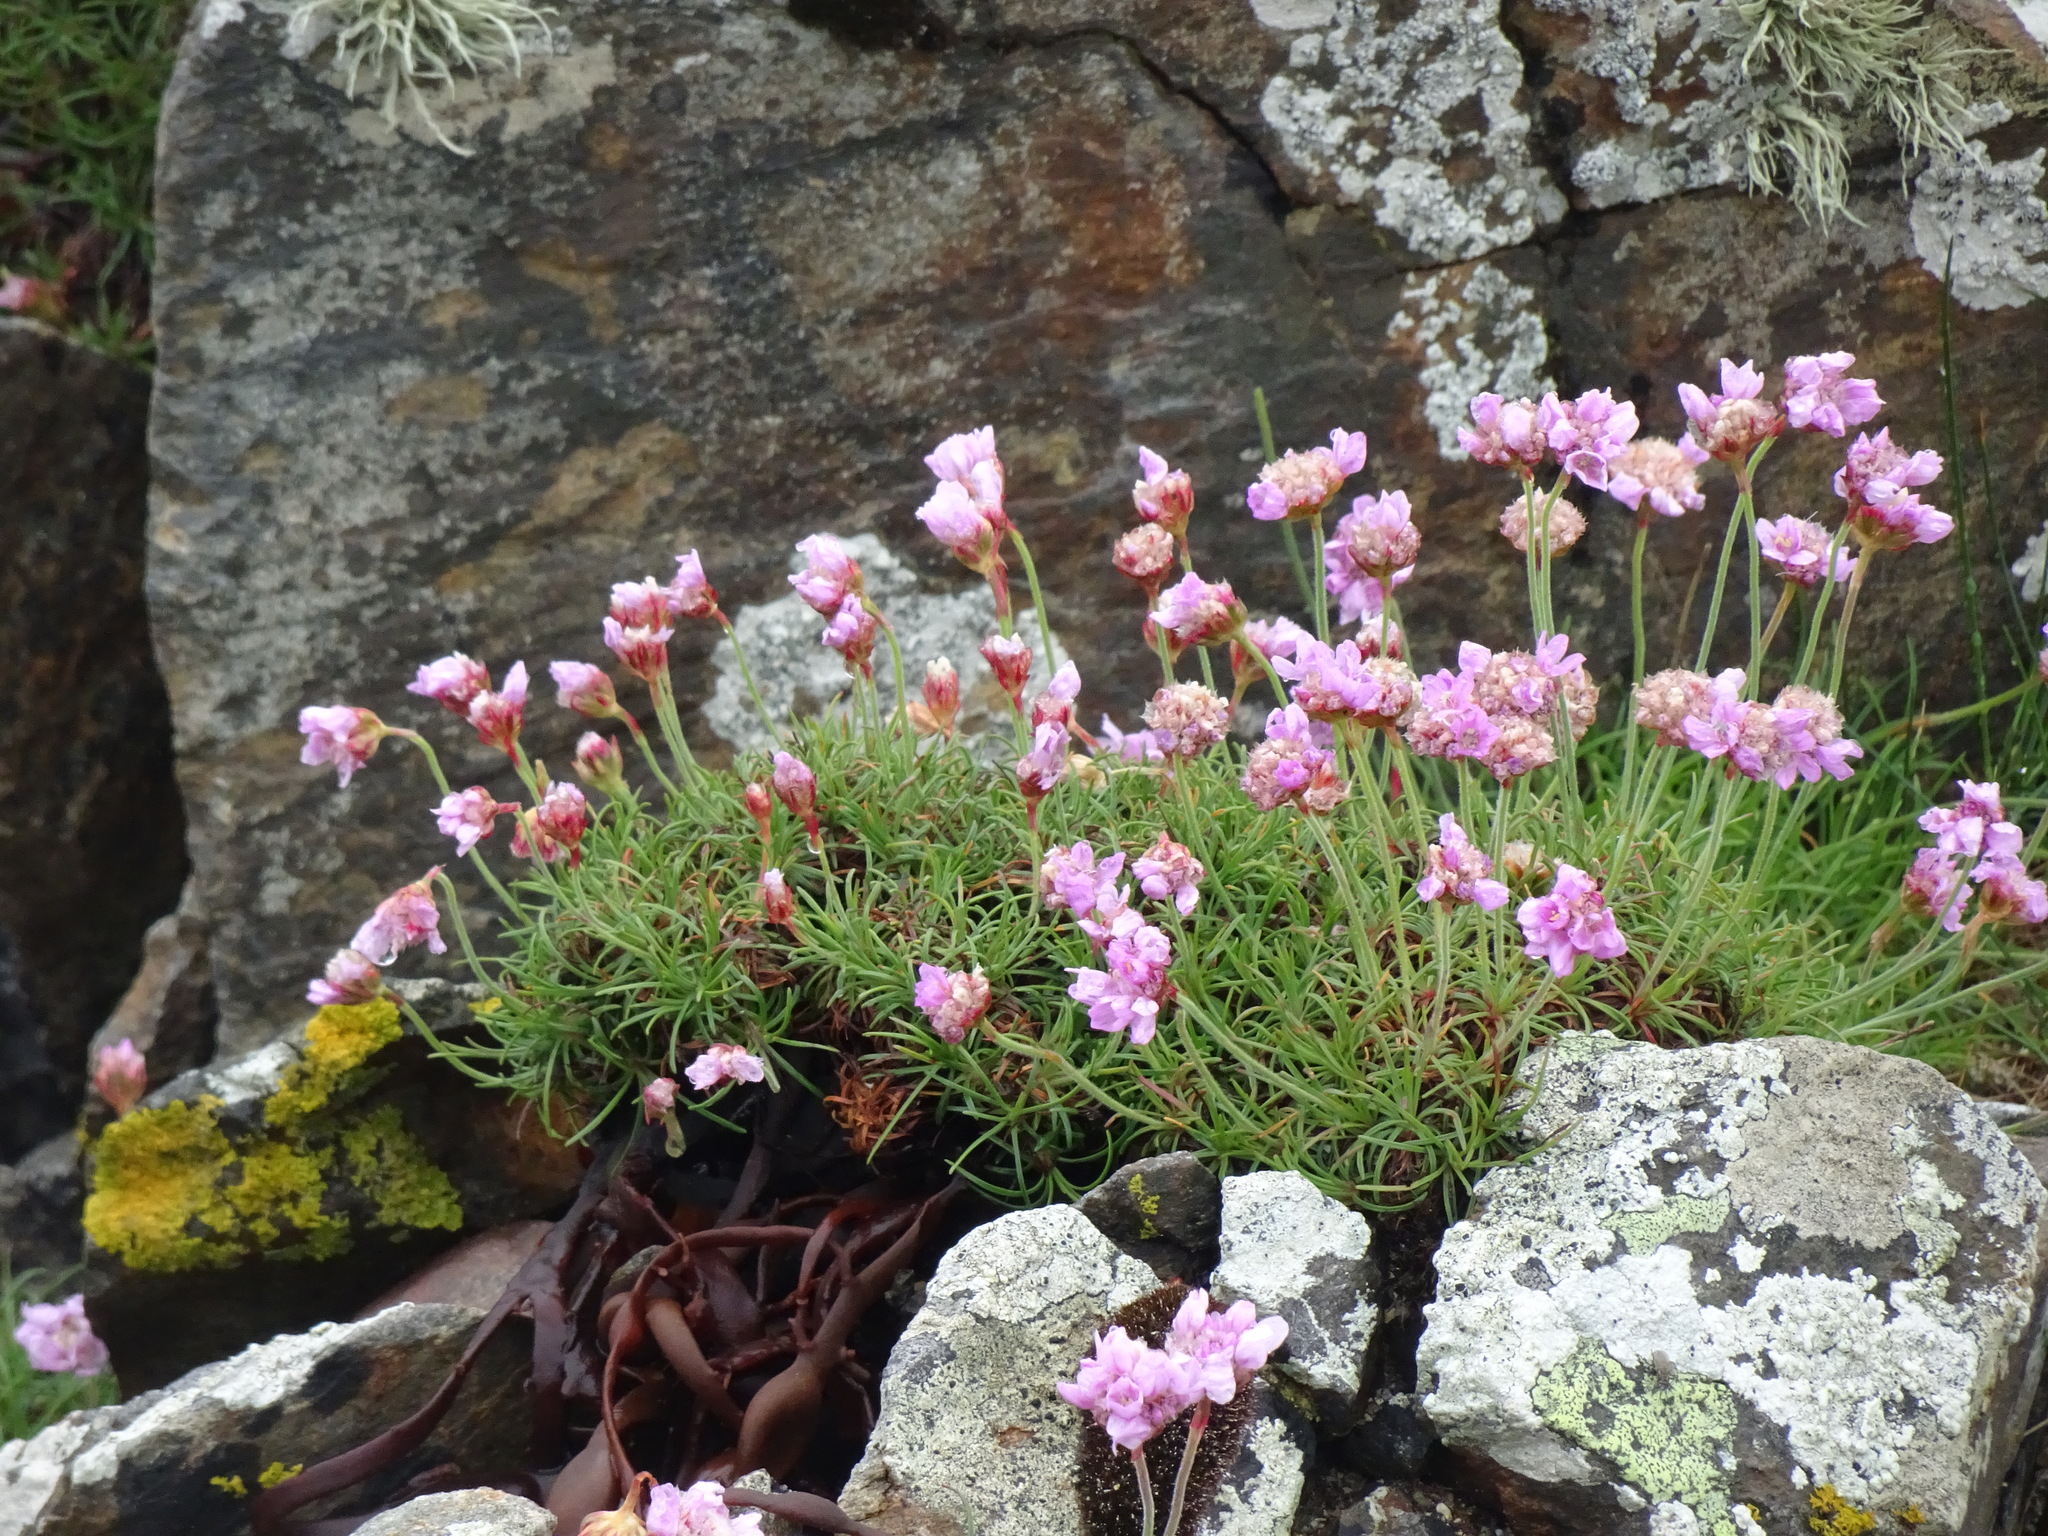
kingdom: Plantae
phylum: Tracheophyta
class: Magnoliopsida
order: Caryophyllales
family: Plumbaginaceae
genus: Armeria
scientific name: Armeria maritima
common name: Thrift
